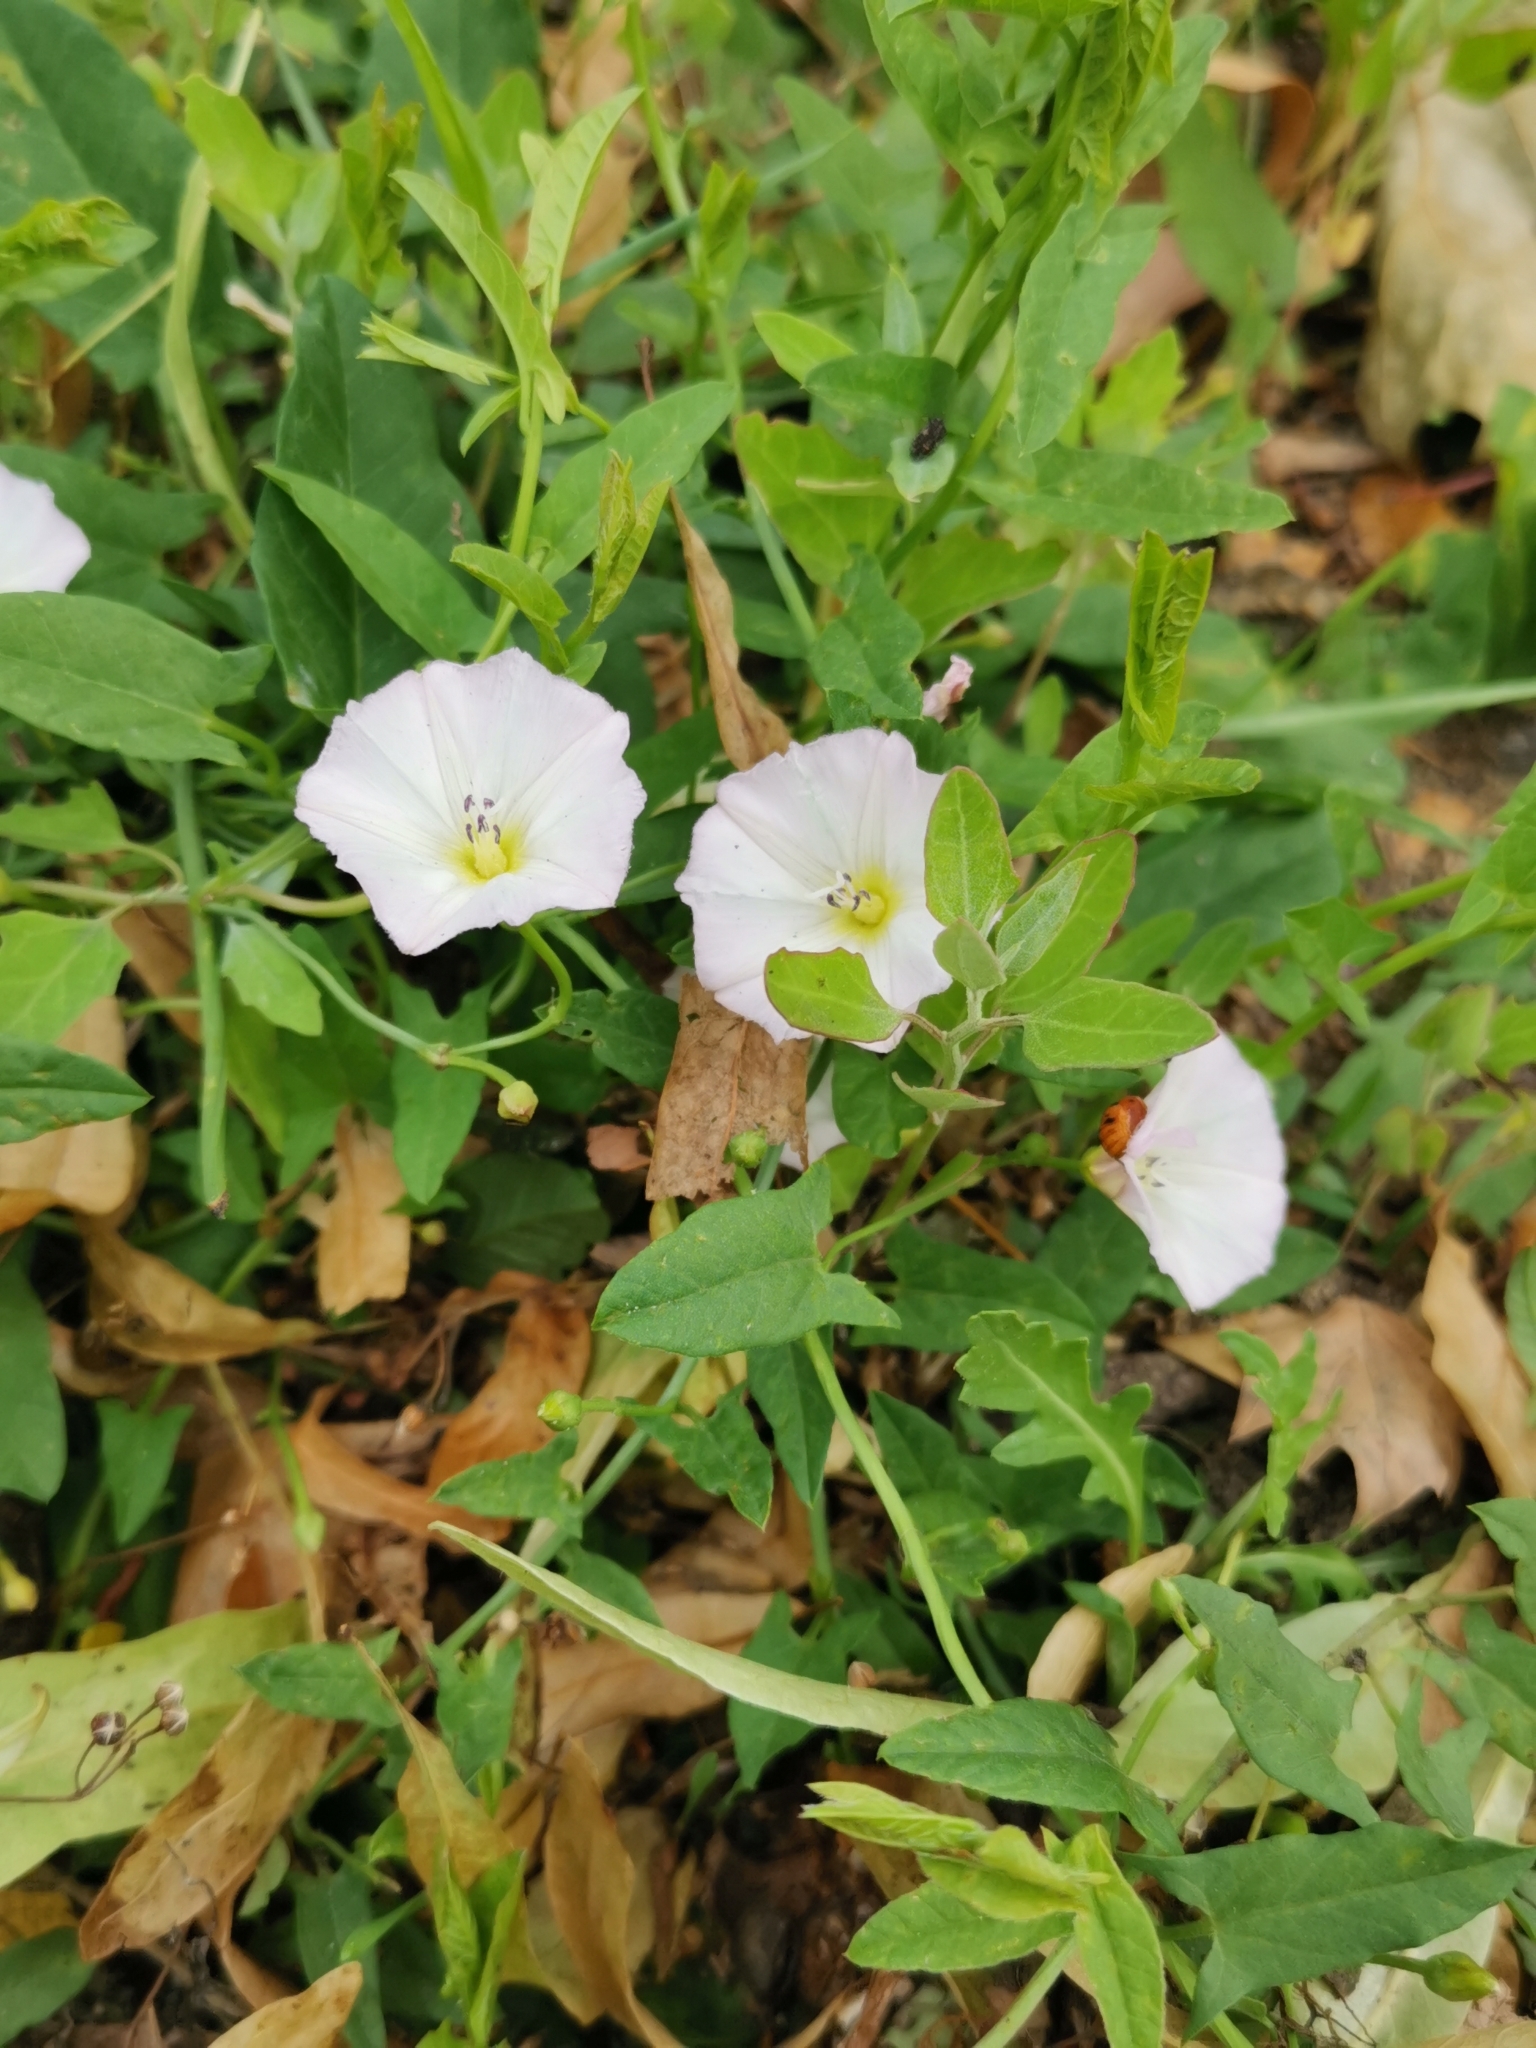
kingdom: Plantae
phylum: Tracheophyta
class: Magnoliopsida
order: Solanales
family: Convolvulaceae
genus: Convolvulus
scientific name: Convolvulus arvensis
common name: Field bindweed
